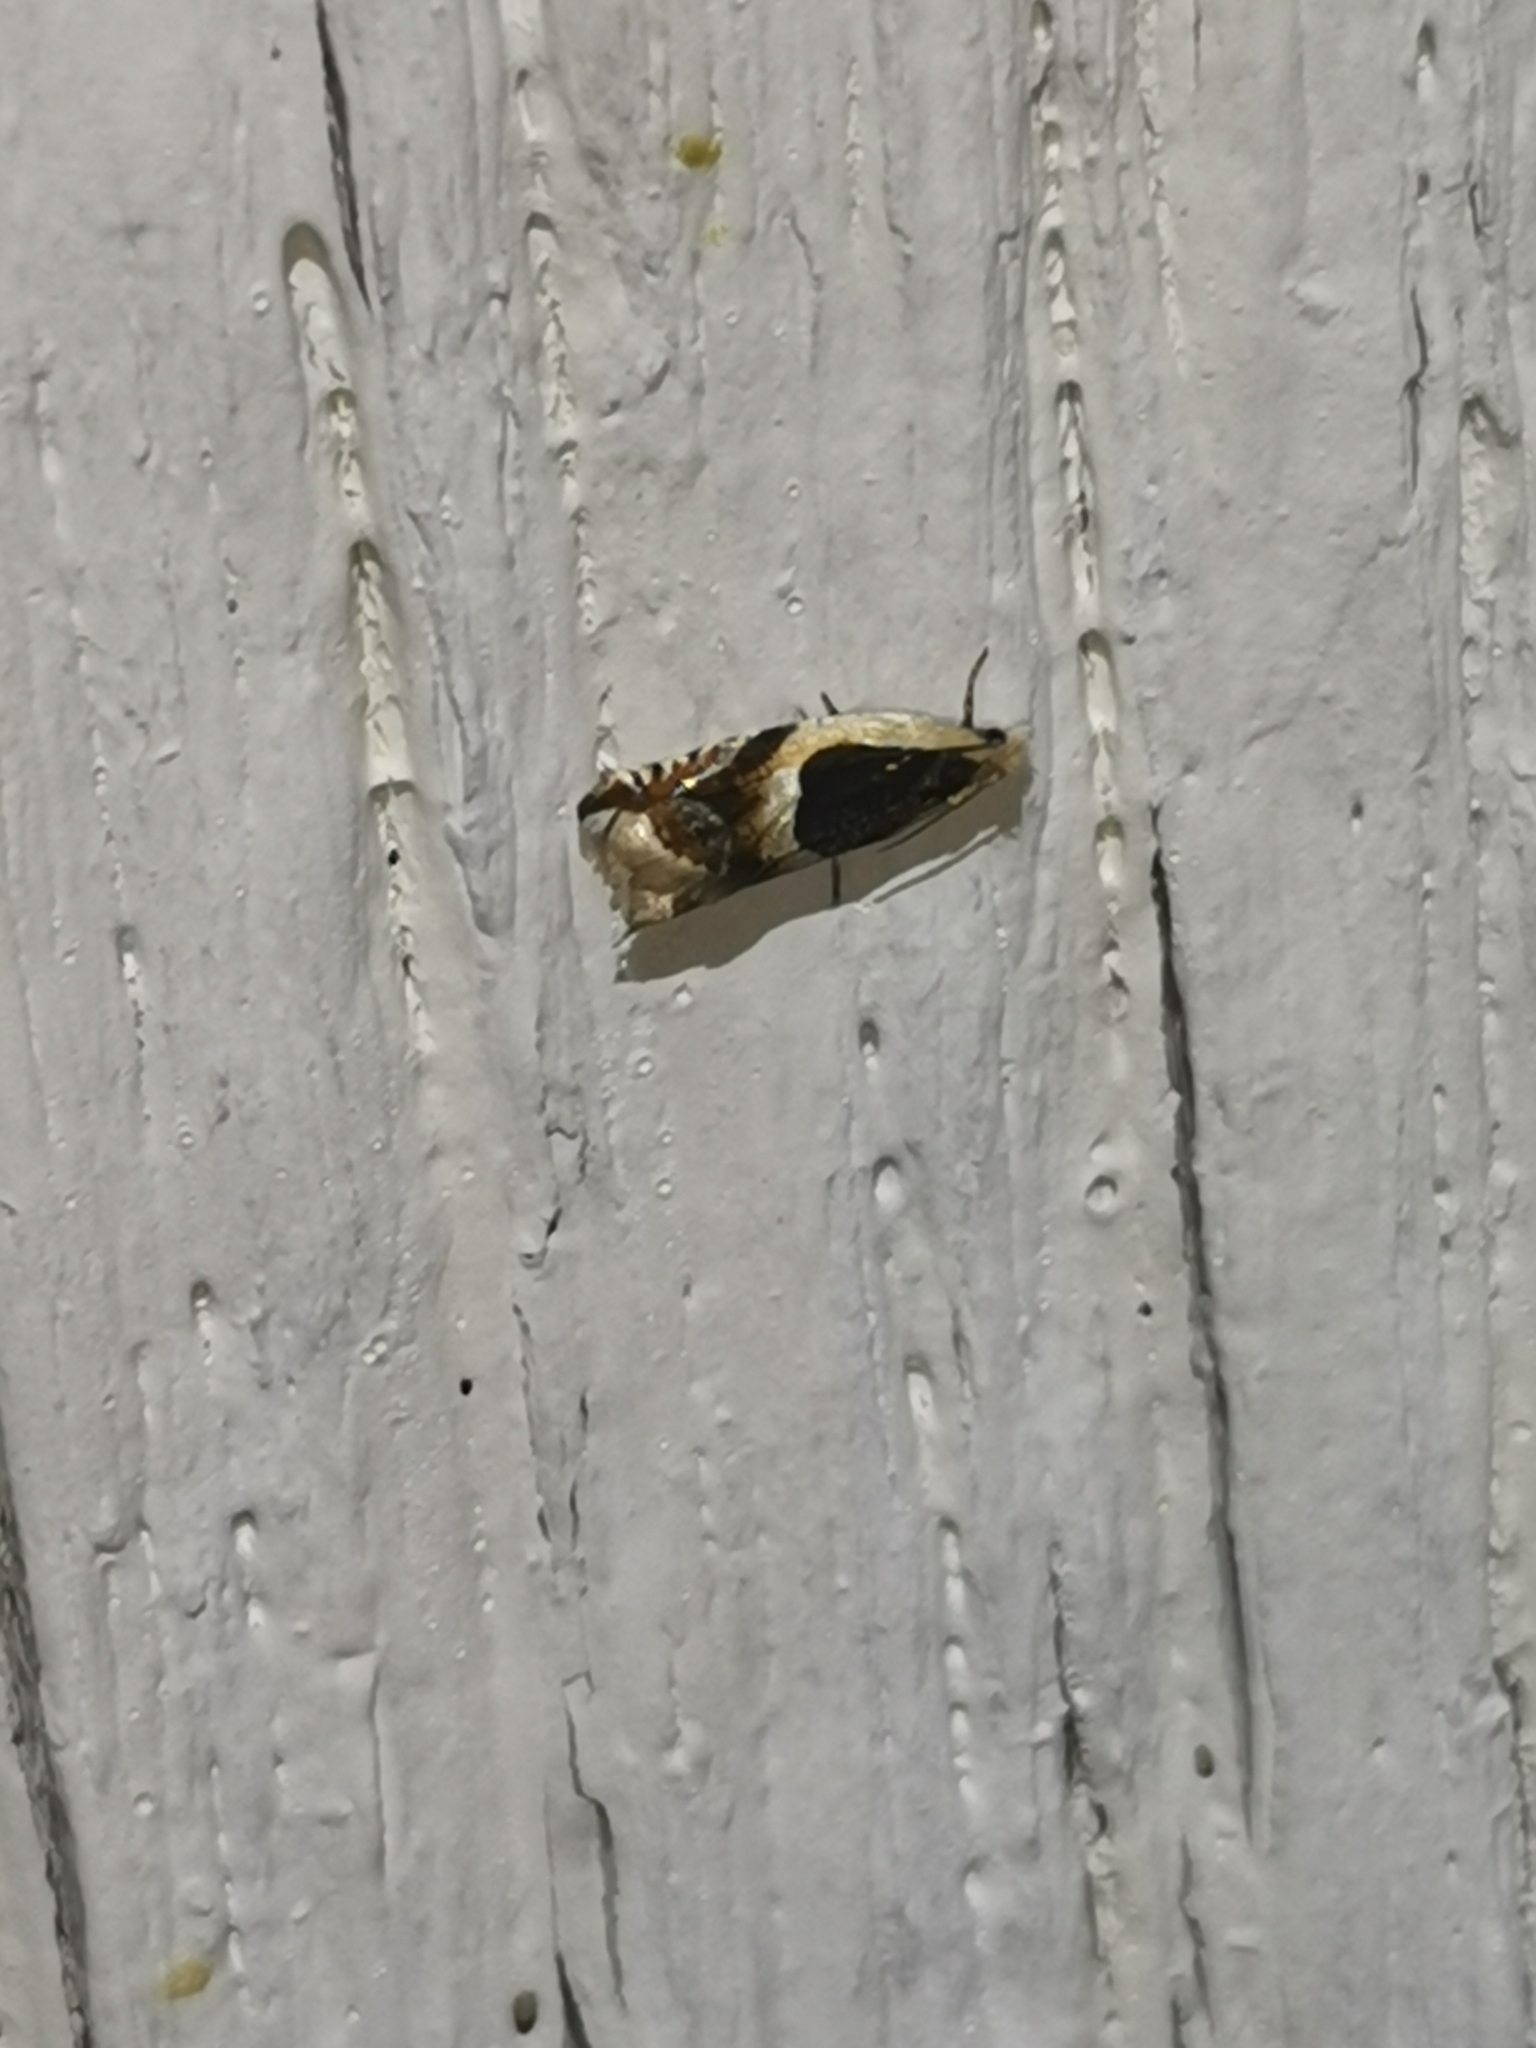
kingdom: Animalia
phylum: Arthropoda
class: Insecta
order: Lepidoptera
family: Tortricidae
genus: Ancylis
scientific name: Ancylis badiana
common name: Common roller
